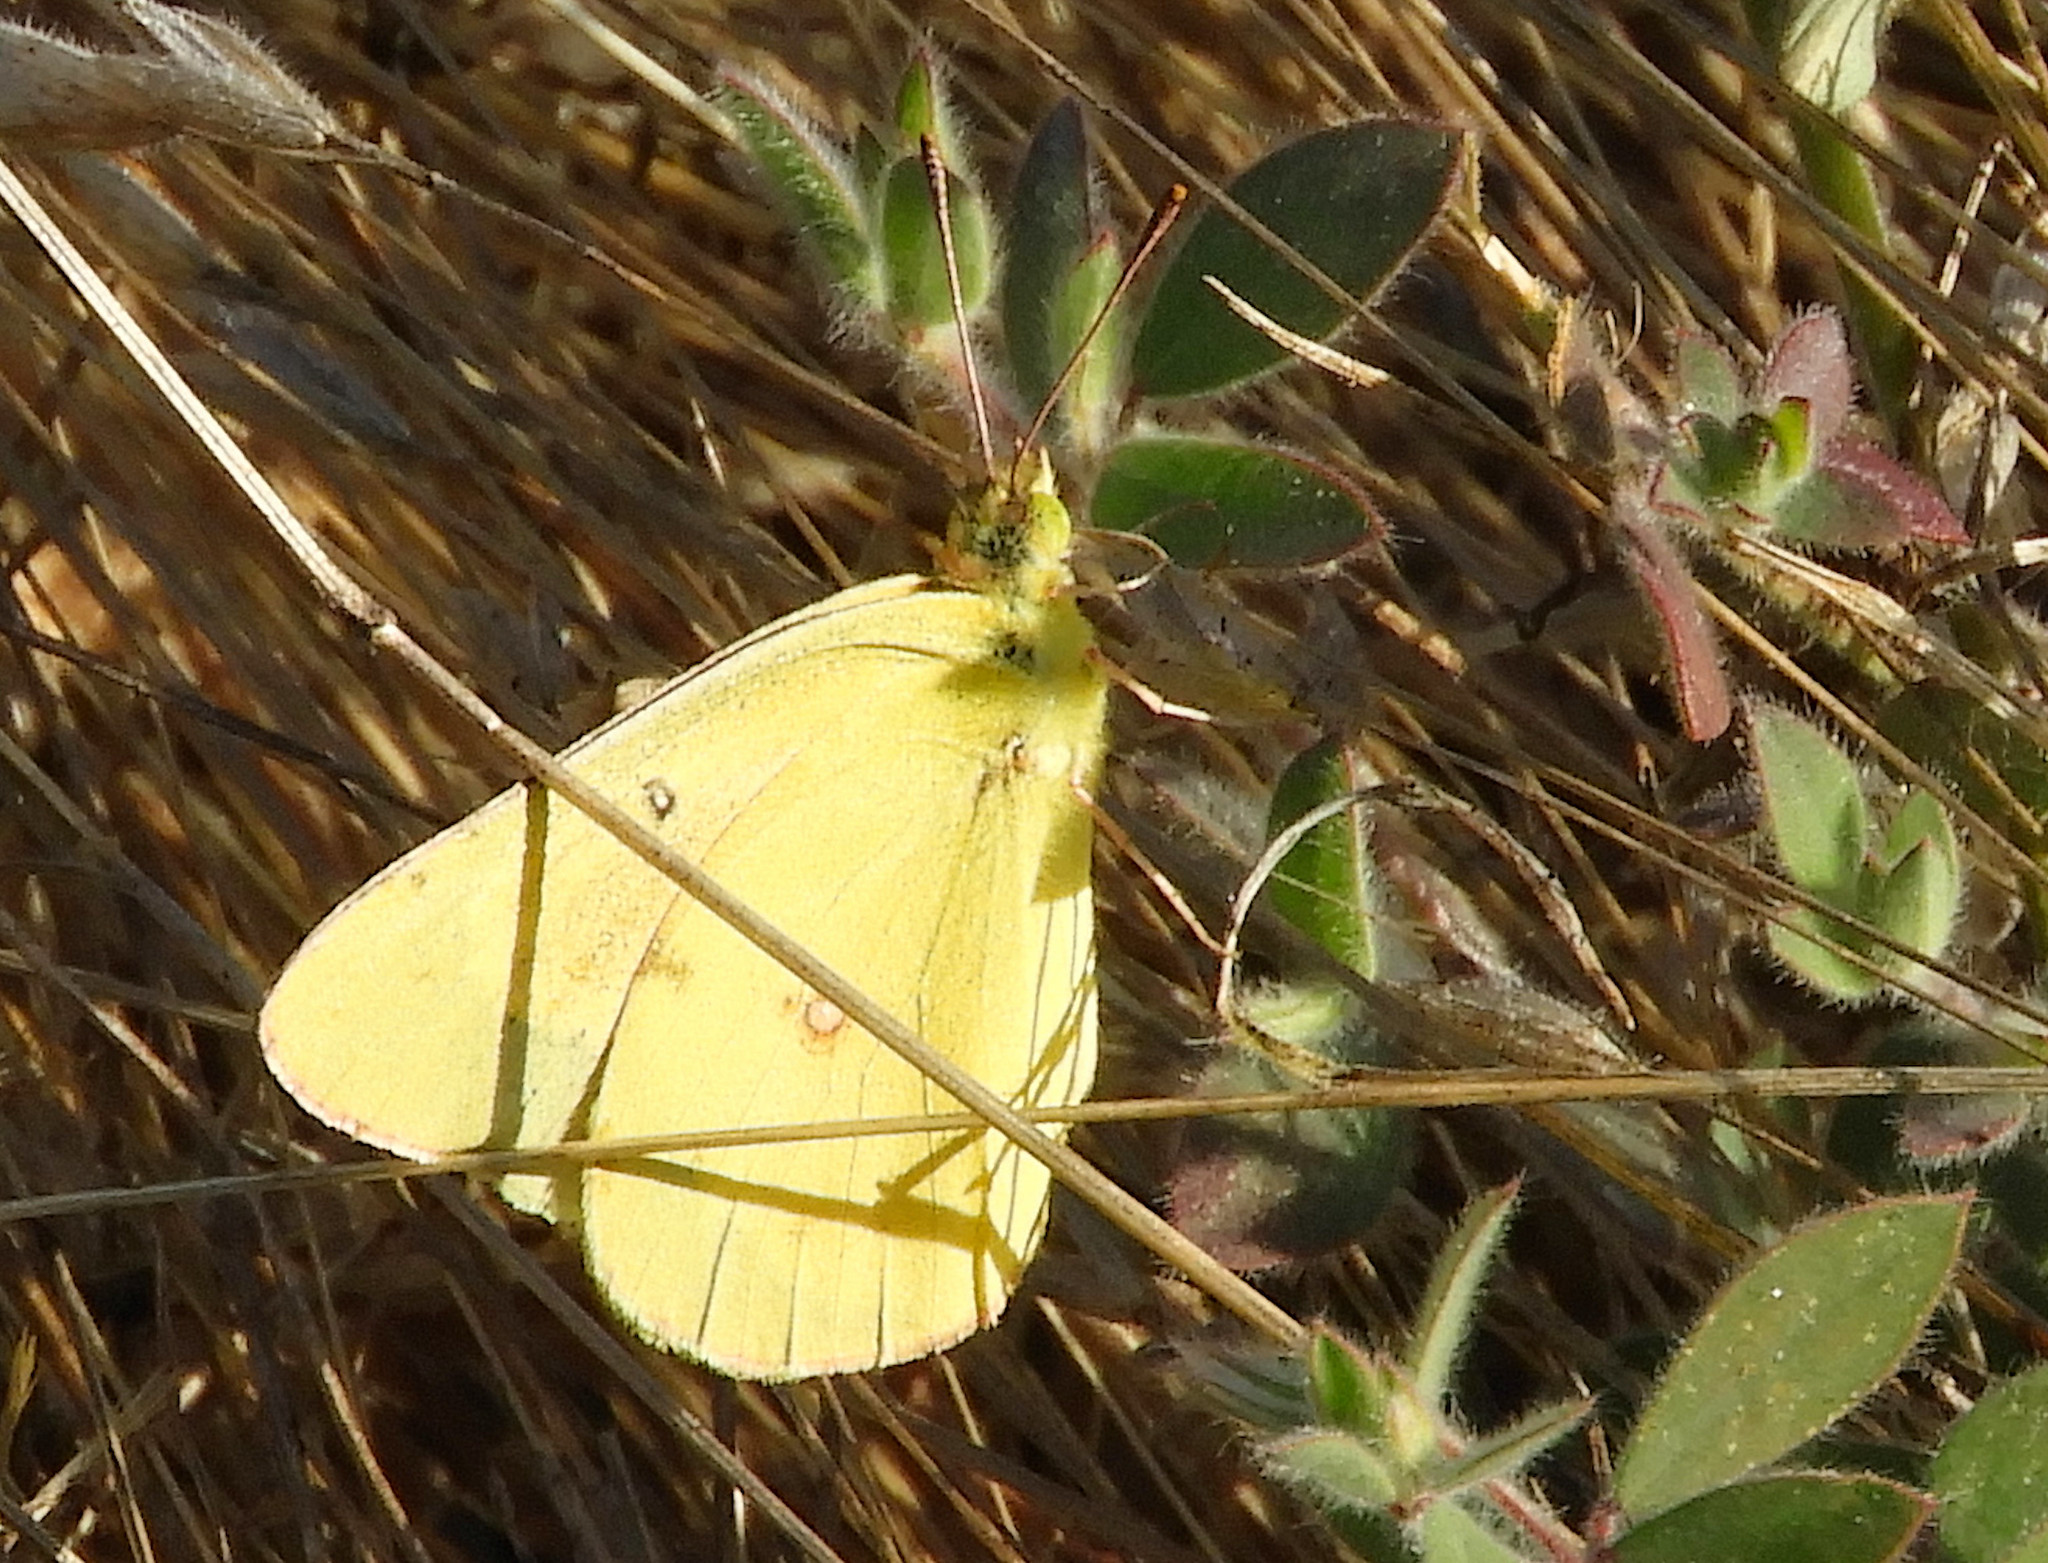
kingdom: Animalia
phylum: Arthropoda
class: Insecta
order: Lepidoptera
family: Pieridae
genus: Colias
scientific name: Colias eurytheme
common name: Alfalfa butterfly
